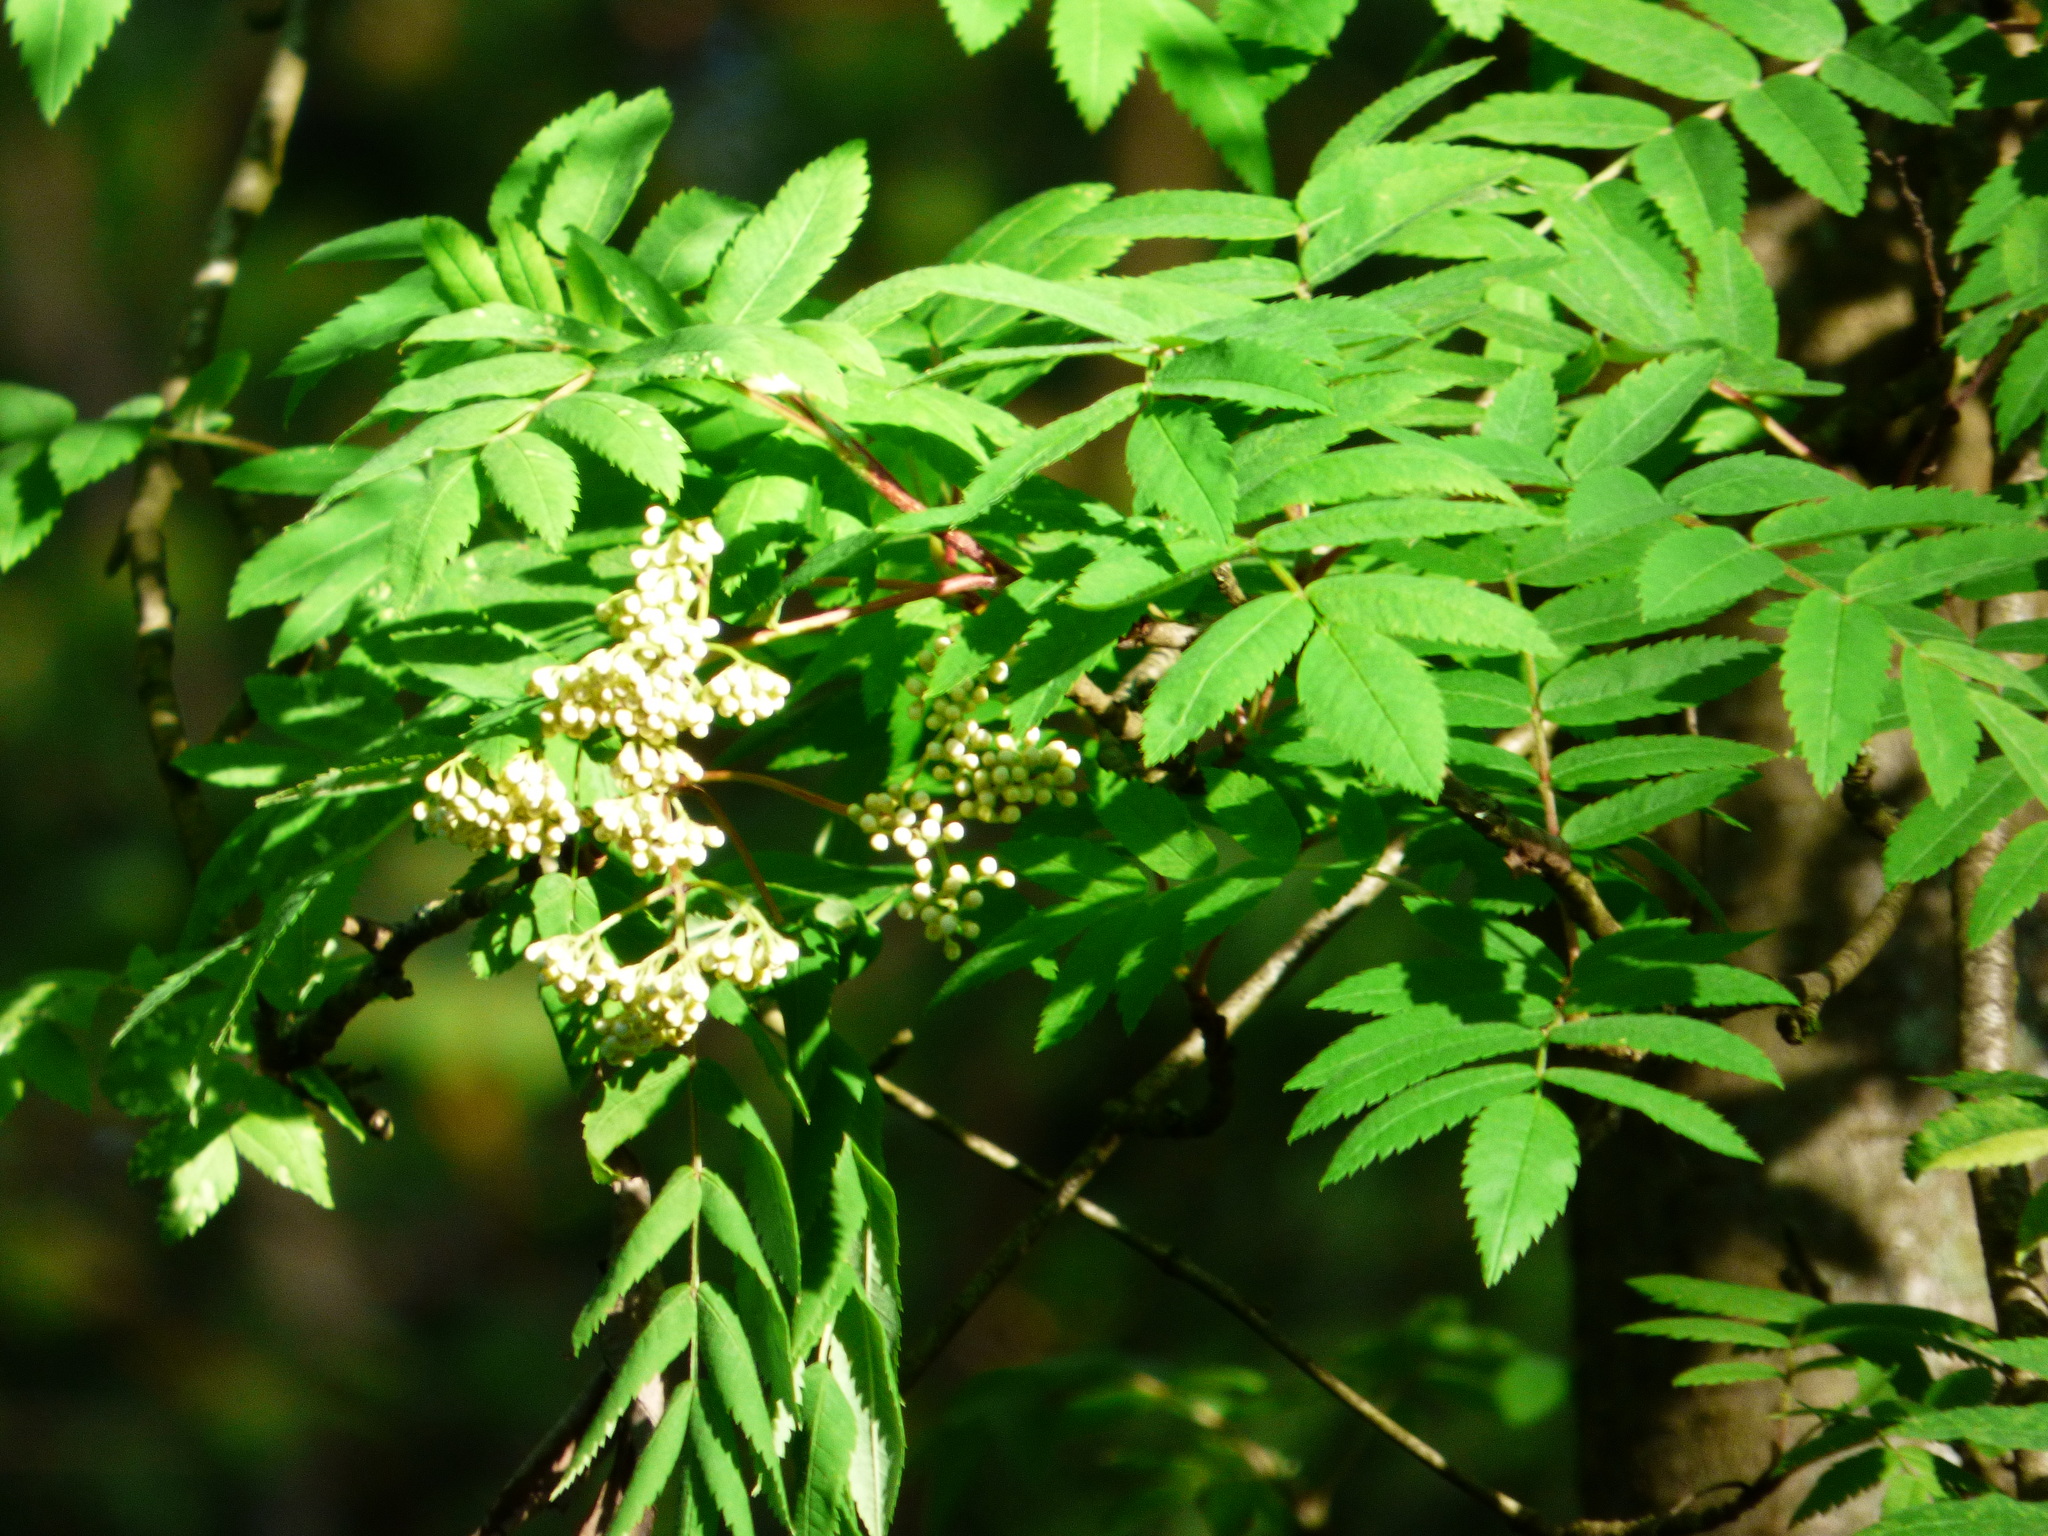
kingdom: Plantae
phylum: Tracheophyta
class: Magnoliopsida
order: Rosales
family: Rosaceae
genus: Sorbus
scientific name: Sorbus aucuparia
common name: Rowan
